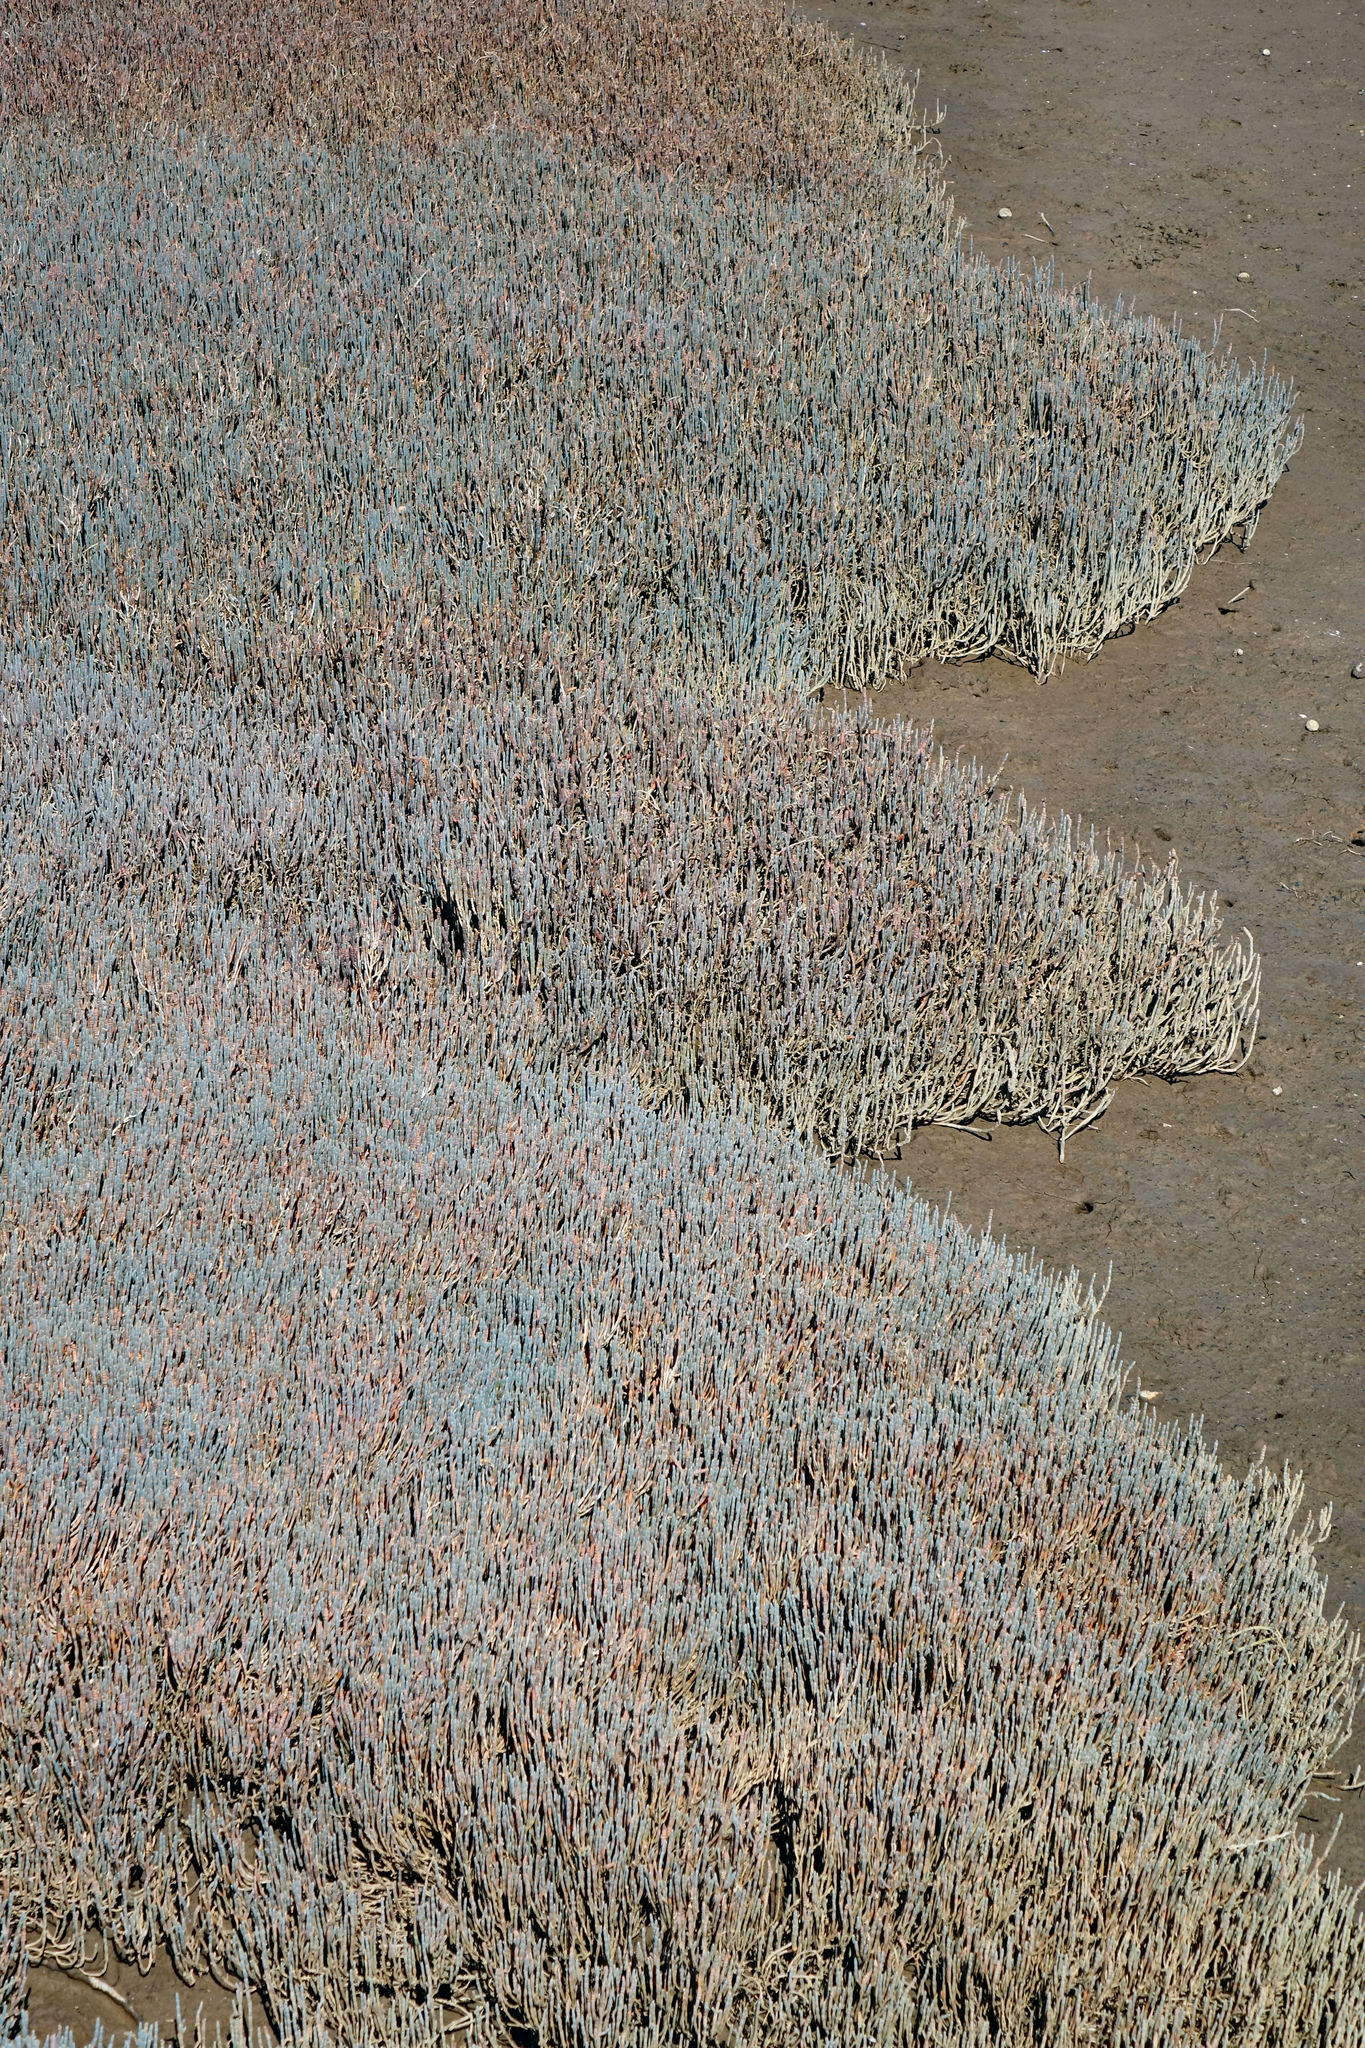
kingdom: Plantae
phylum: Tracheophyta
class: Magnoliopsida
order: Caryophyllales
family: Amaranthaceae
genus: Salicornia
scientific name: Salicornia quinqueflora
